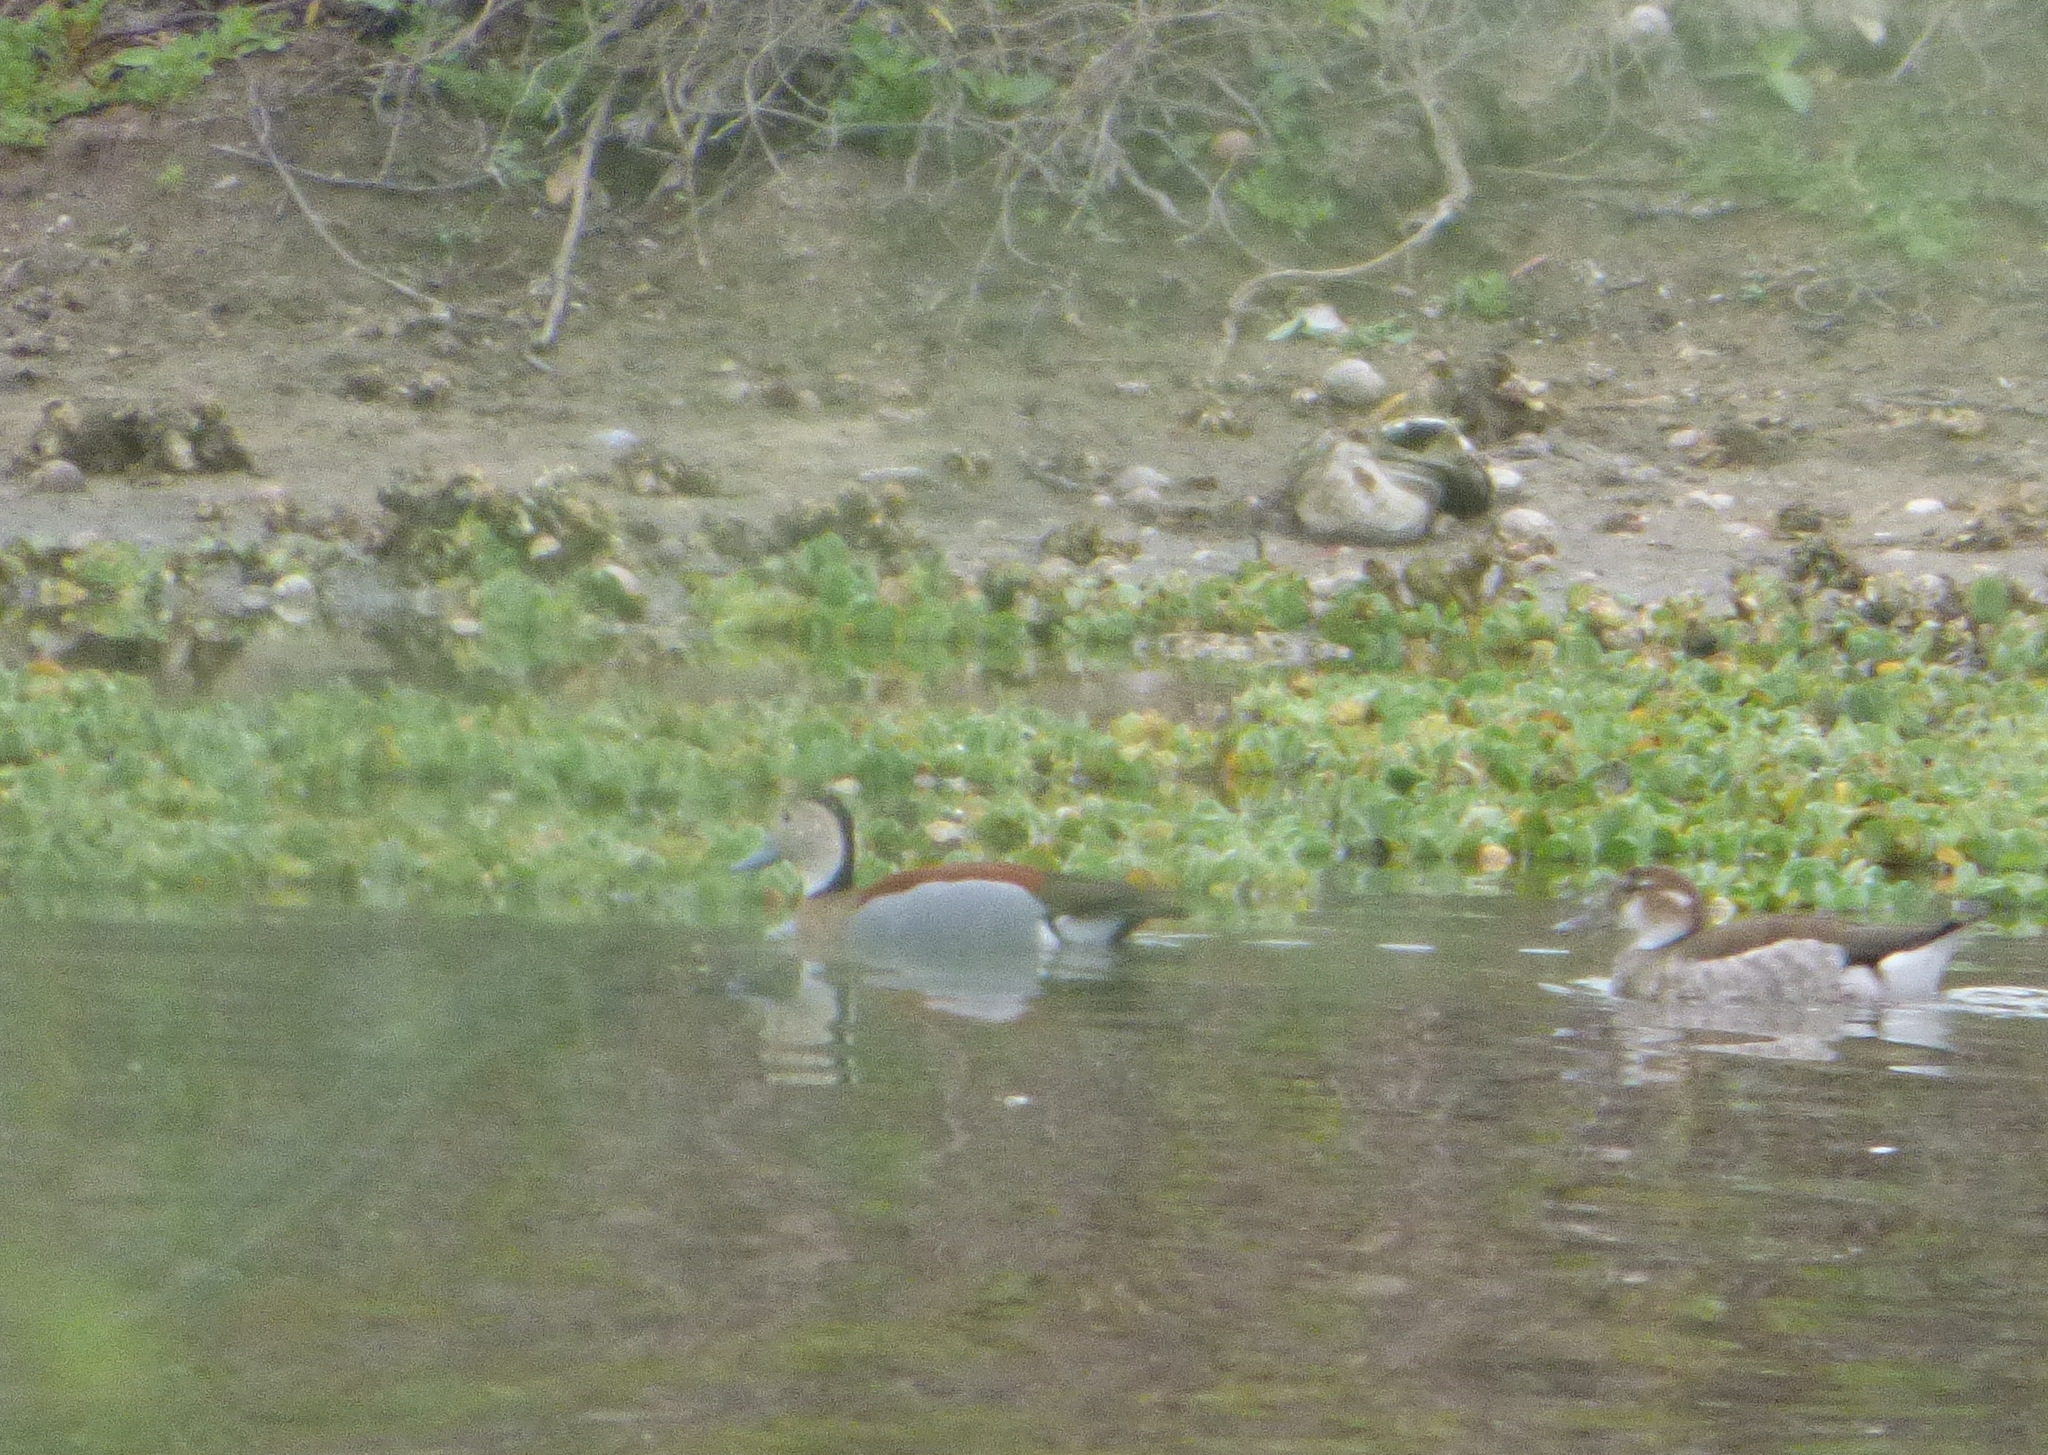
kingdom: Animalia
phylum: Chordata
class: Aves
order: Anseriformes
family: Anatidae
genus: Callonetta
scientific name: Callonetta leucophrys
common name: Ringed teal
